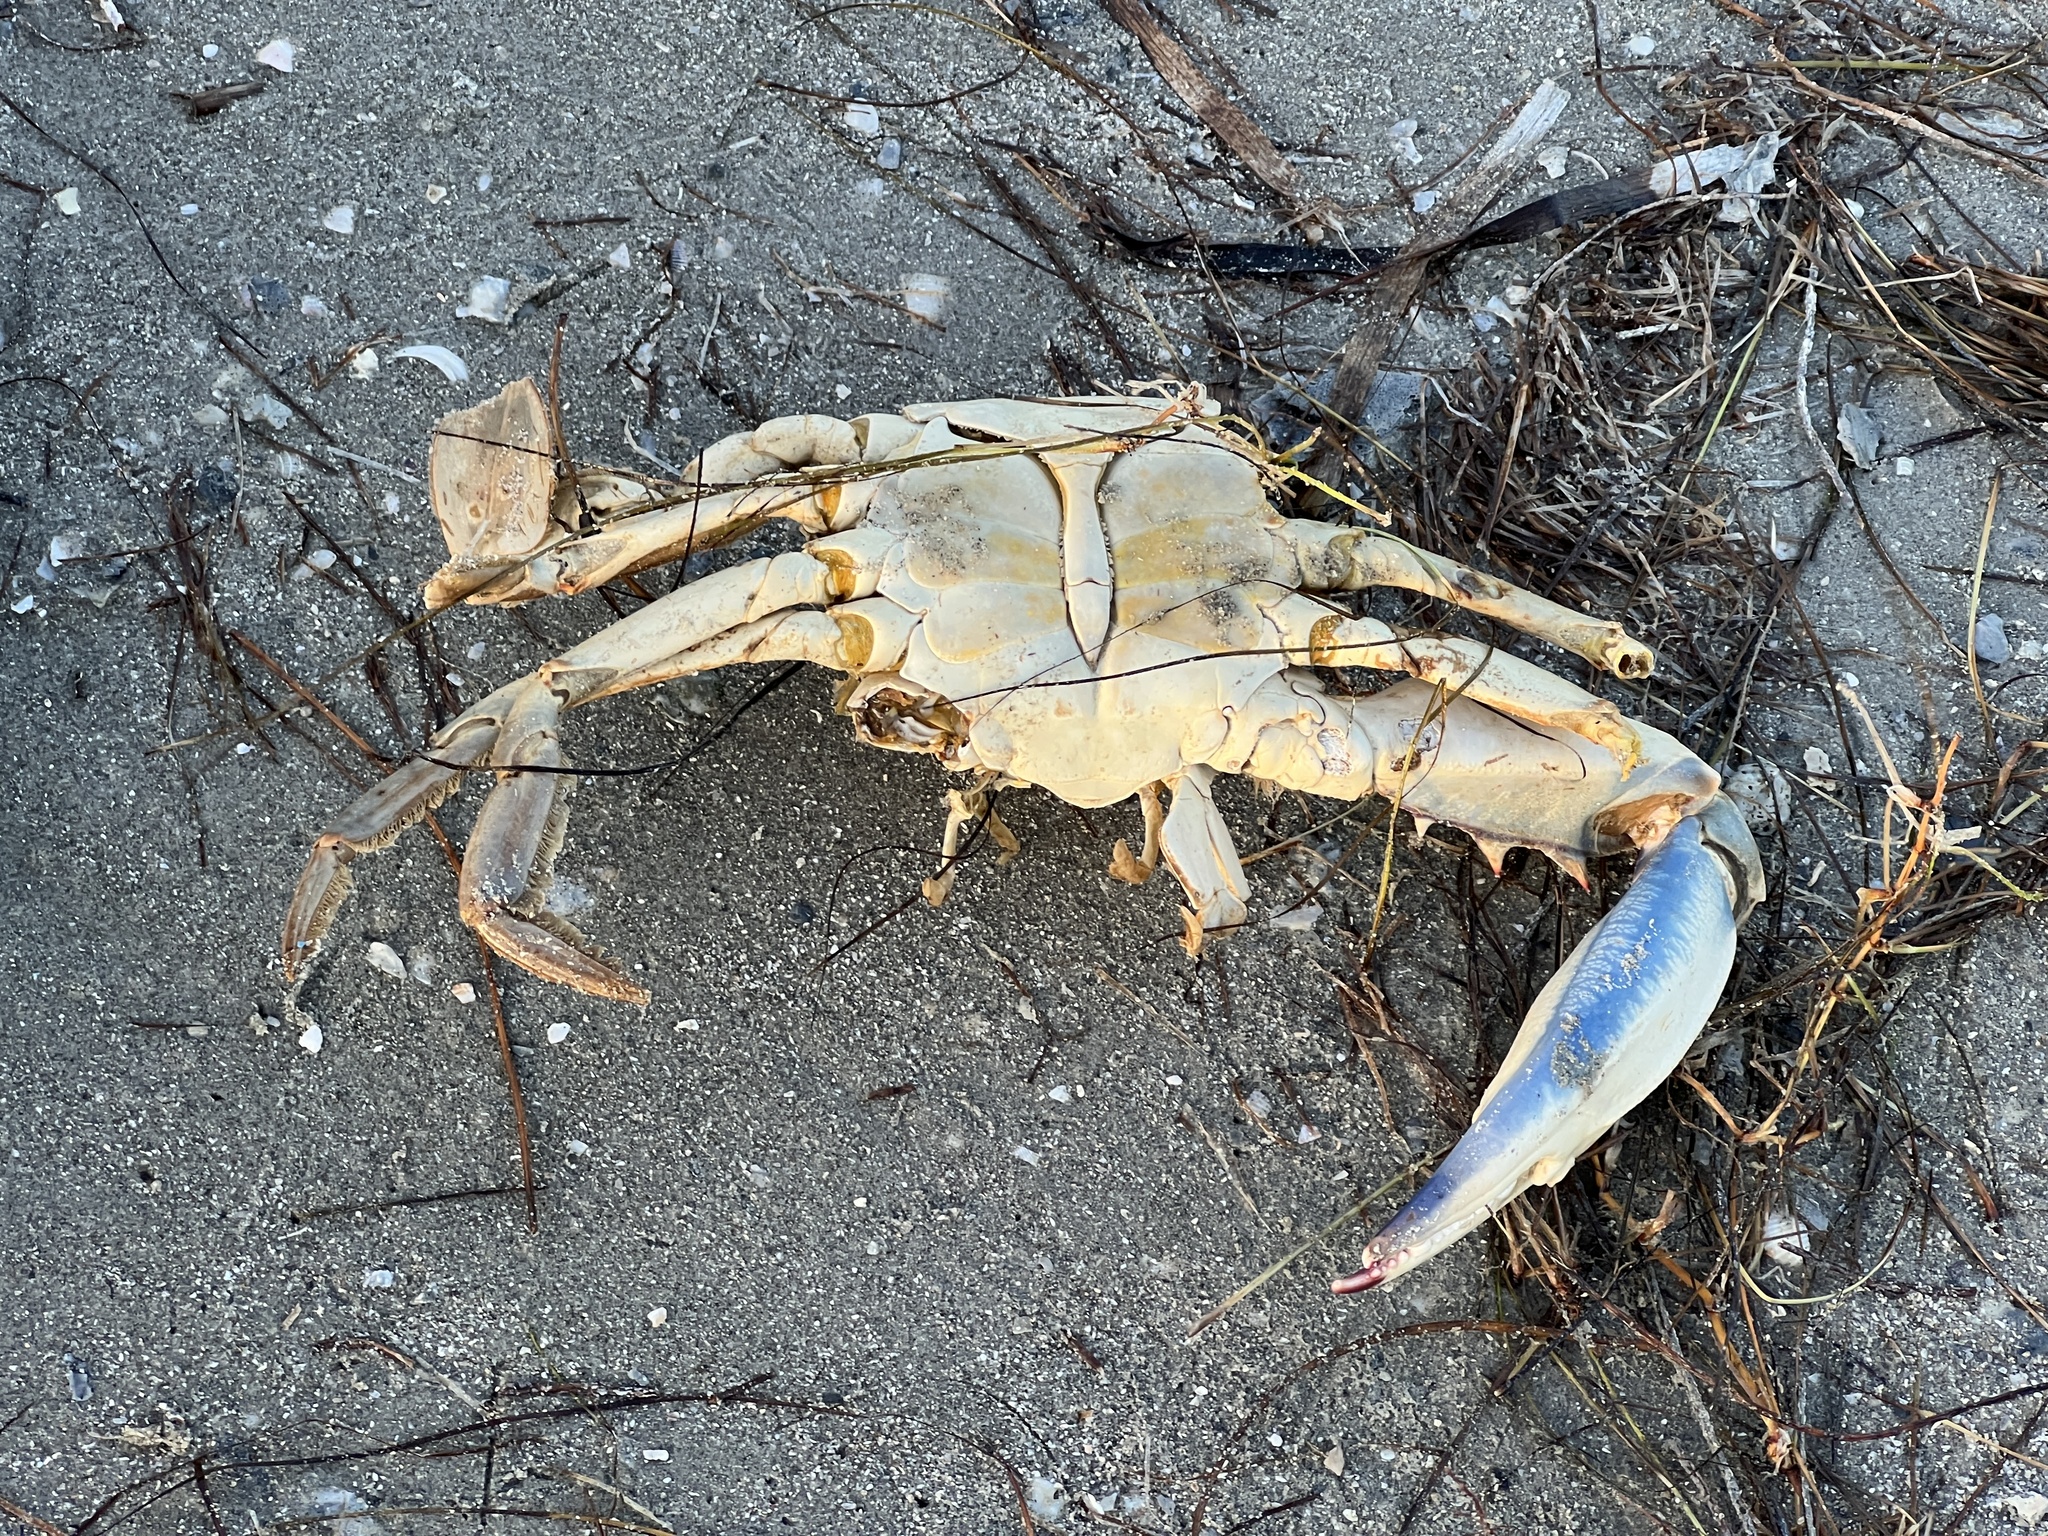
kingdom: Animalia
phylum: Arthropoda
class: Malacostraca
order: Decapoda
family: Portunidae
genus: Callinectes
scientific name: Callinectes sapidus
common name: Blue crab
